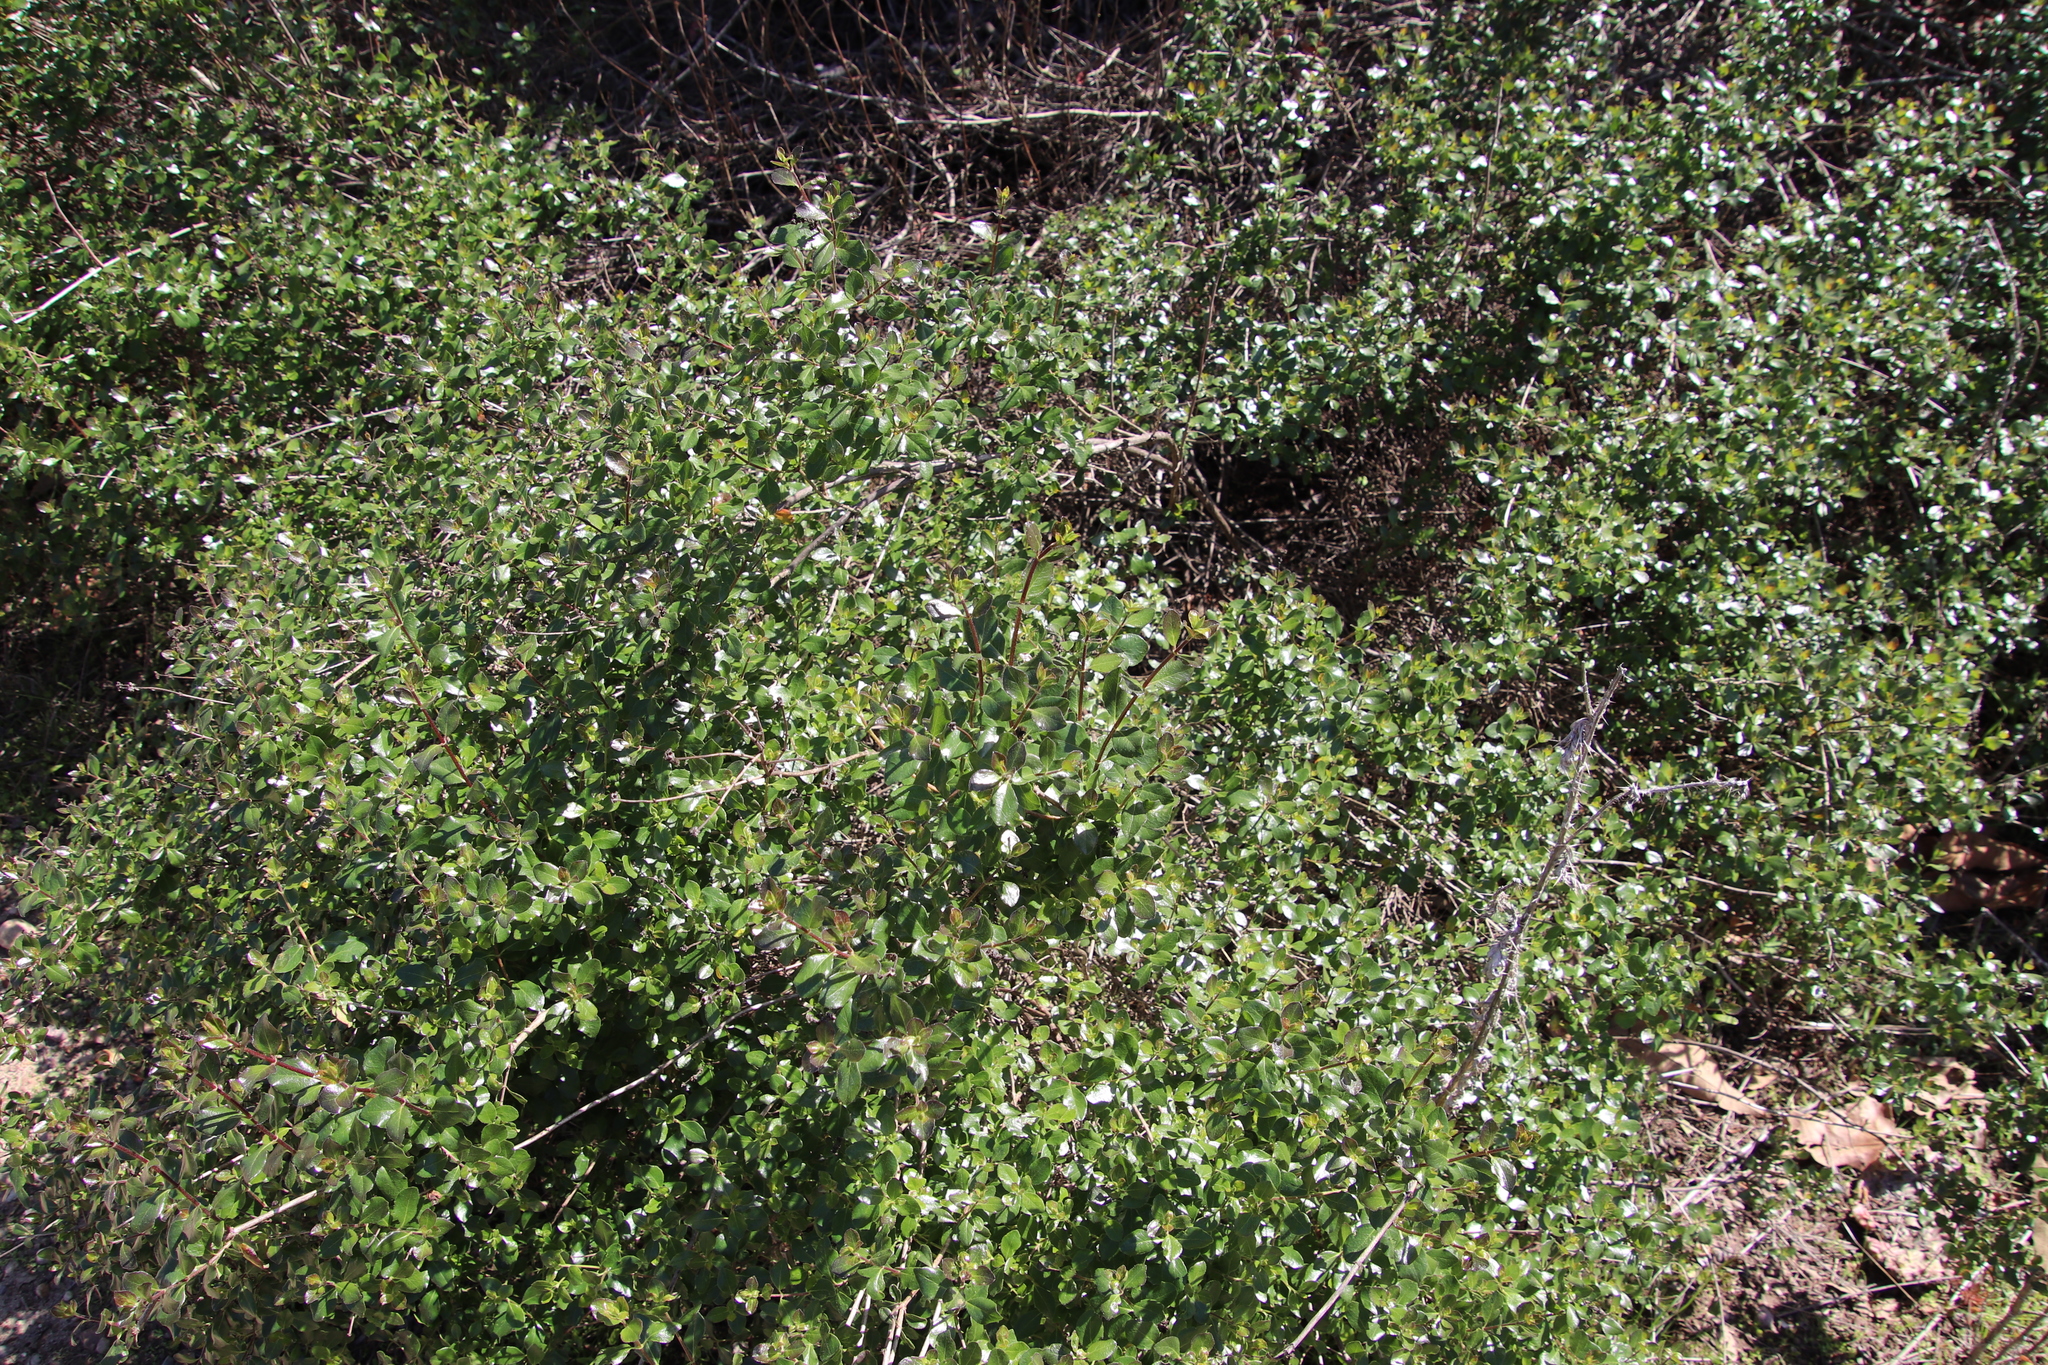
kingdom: Plantae
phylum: Tracheophyta
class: Magnoliopsida
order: Dipsacales
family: Caprifoliaceae
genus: Lonicera
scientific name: Lonicera subspicata
